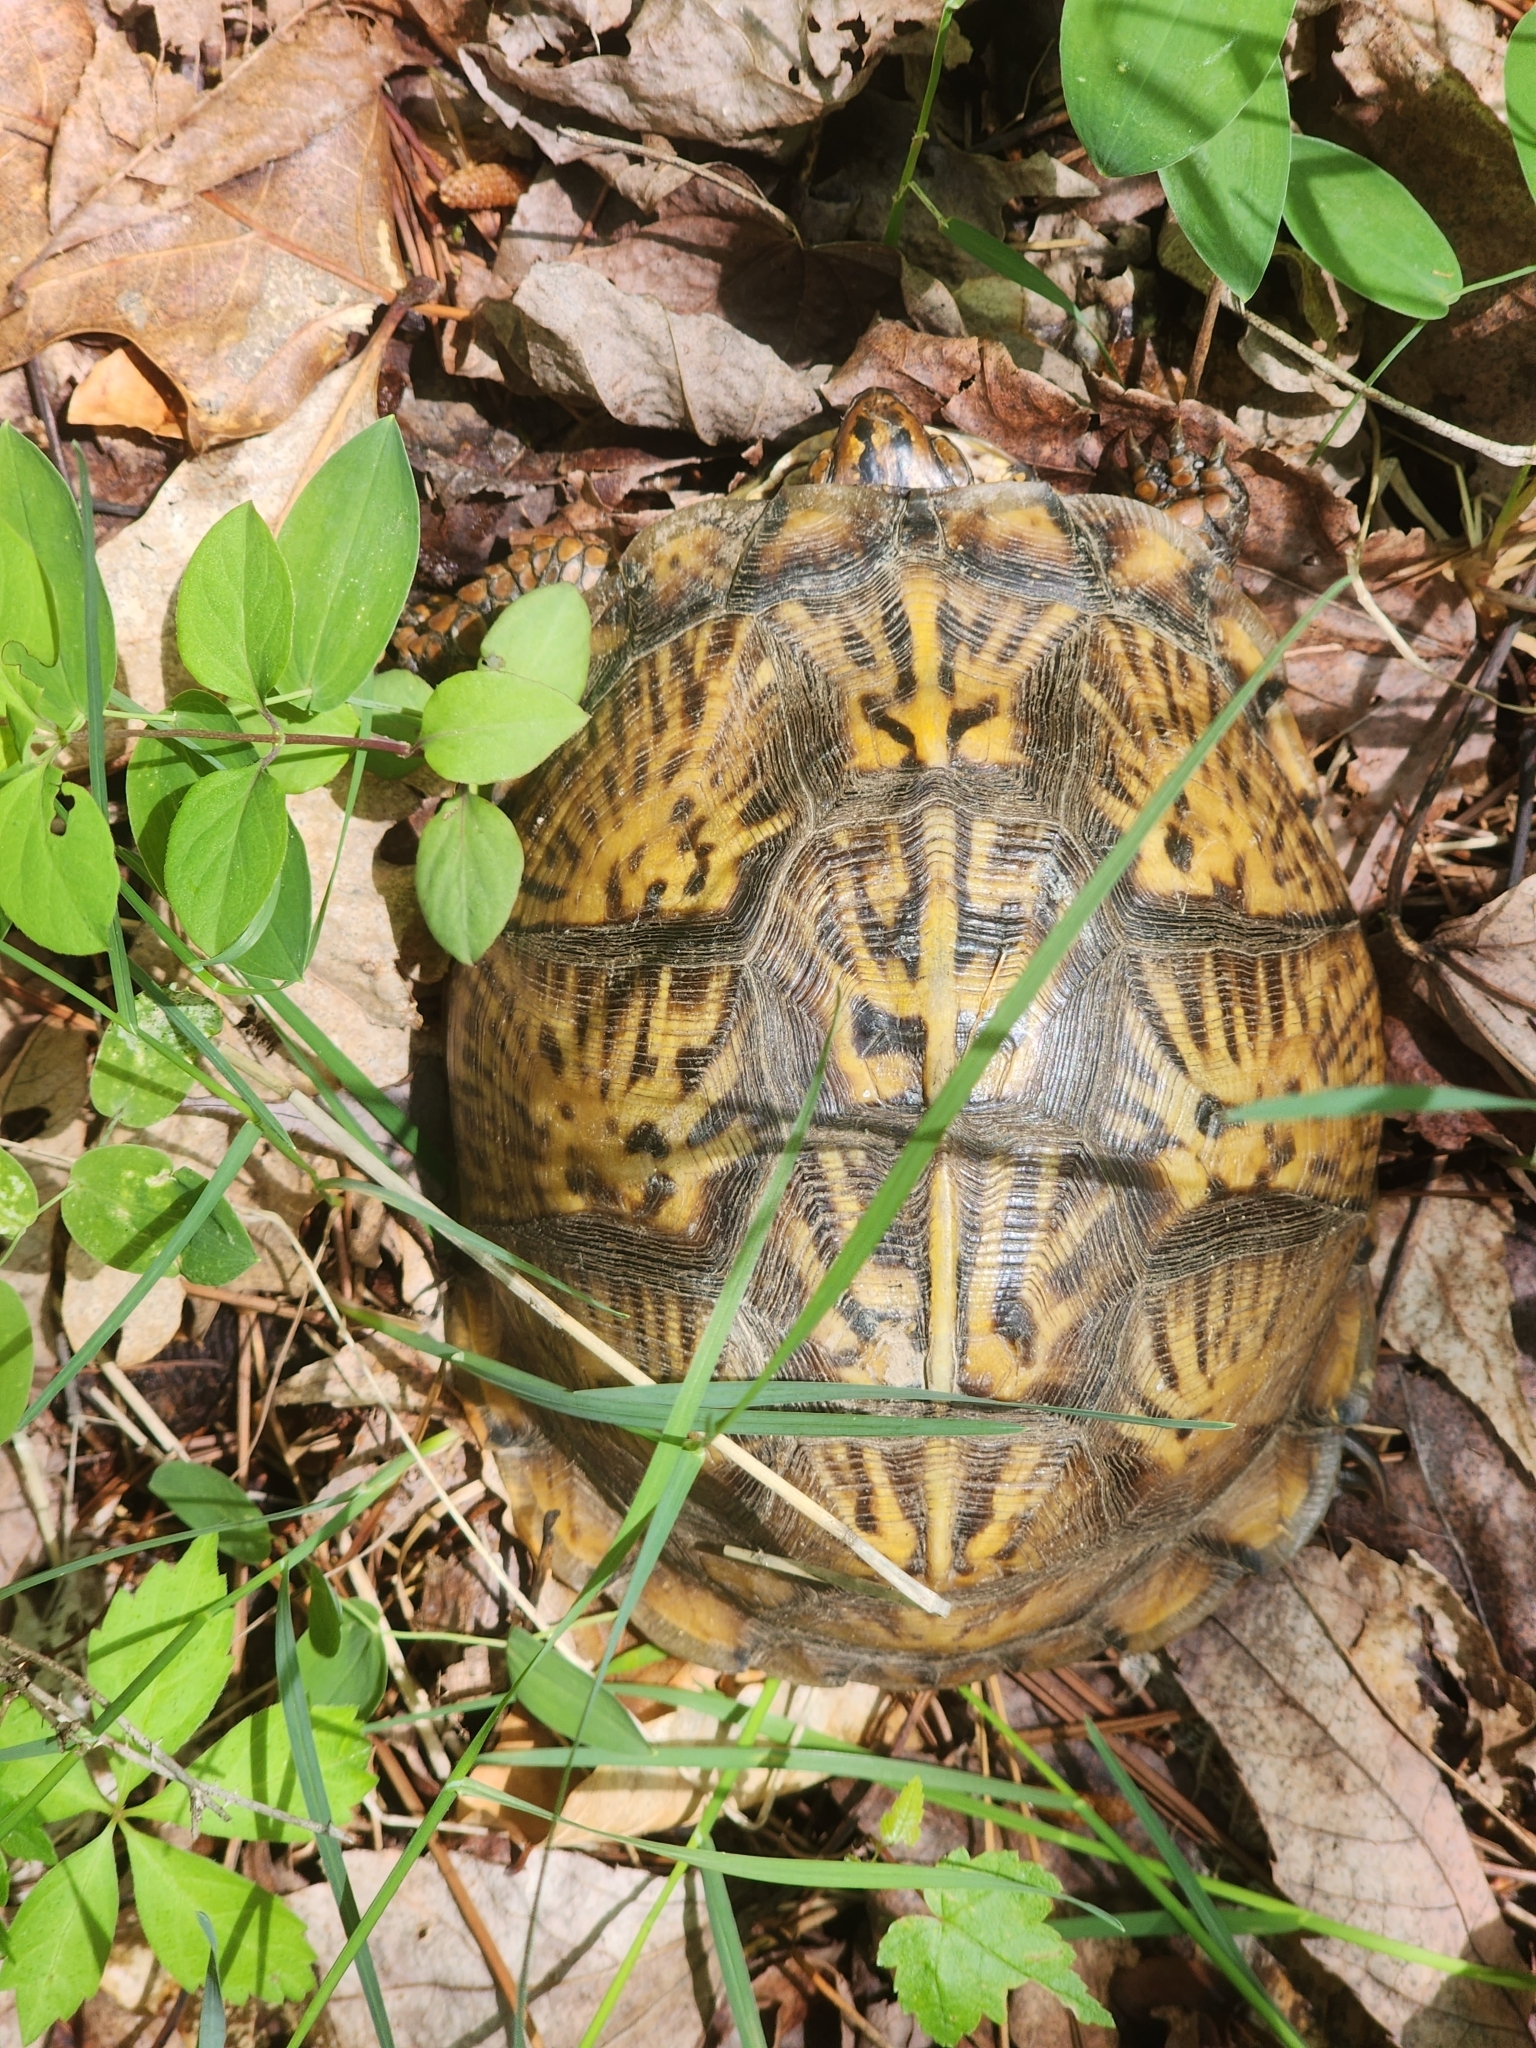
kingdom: Animalia
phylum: Chordata
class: Testudines
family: Emydidae
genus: Terrapene
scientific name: Terrapene carolina
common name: Common box turtle
